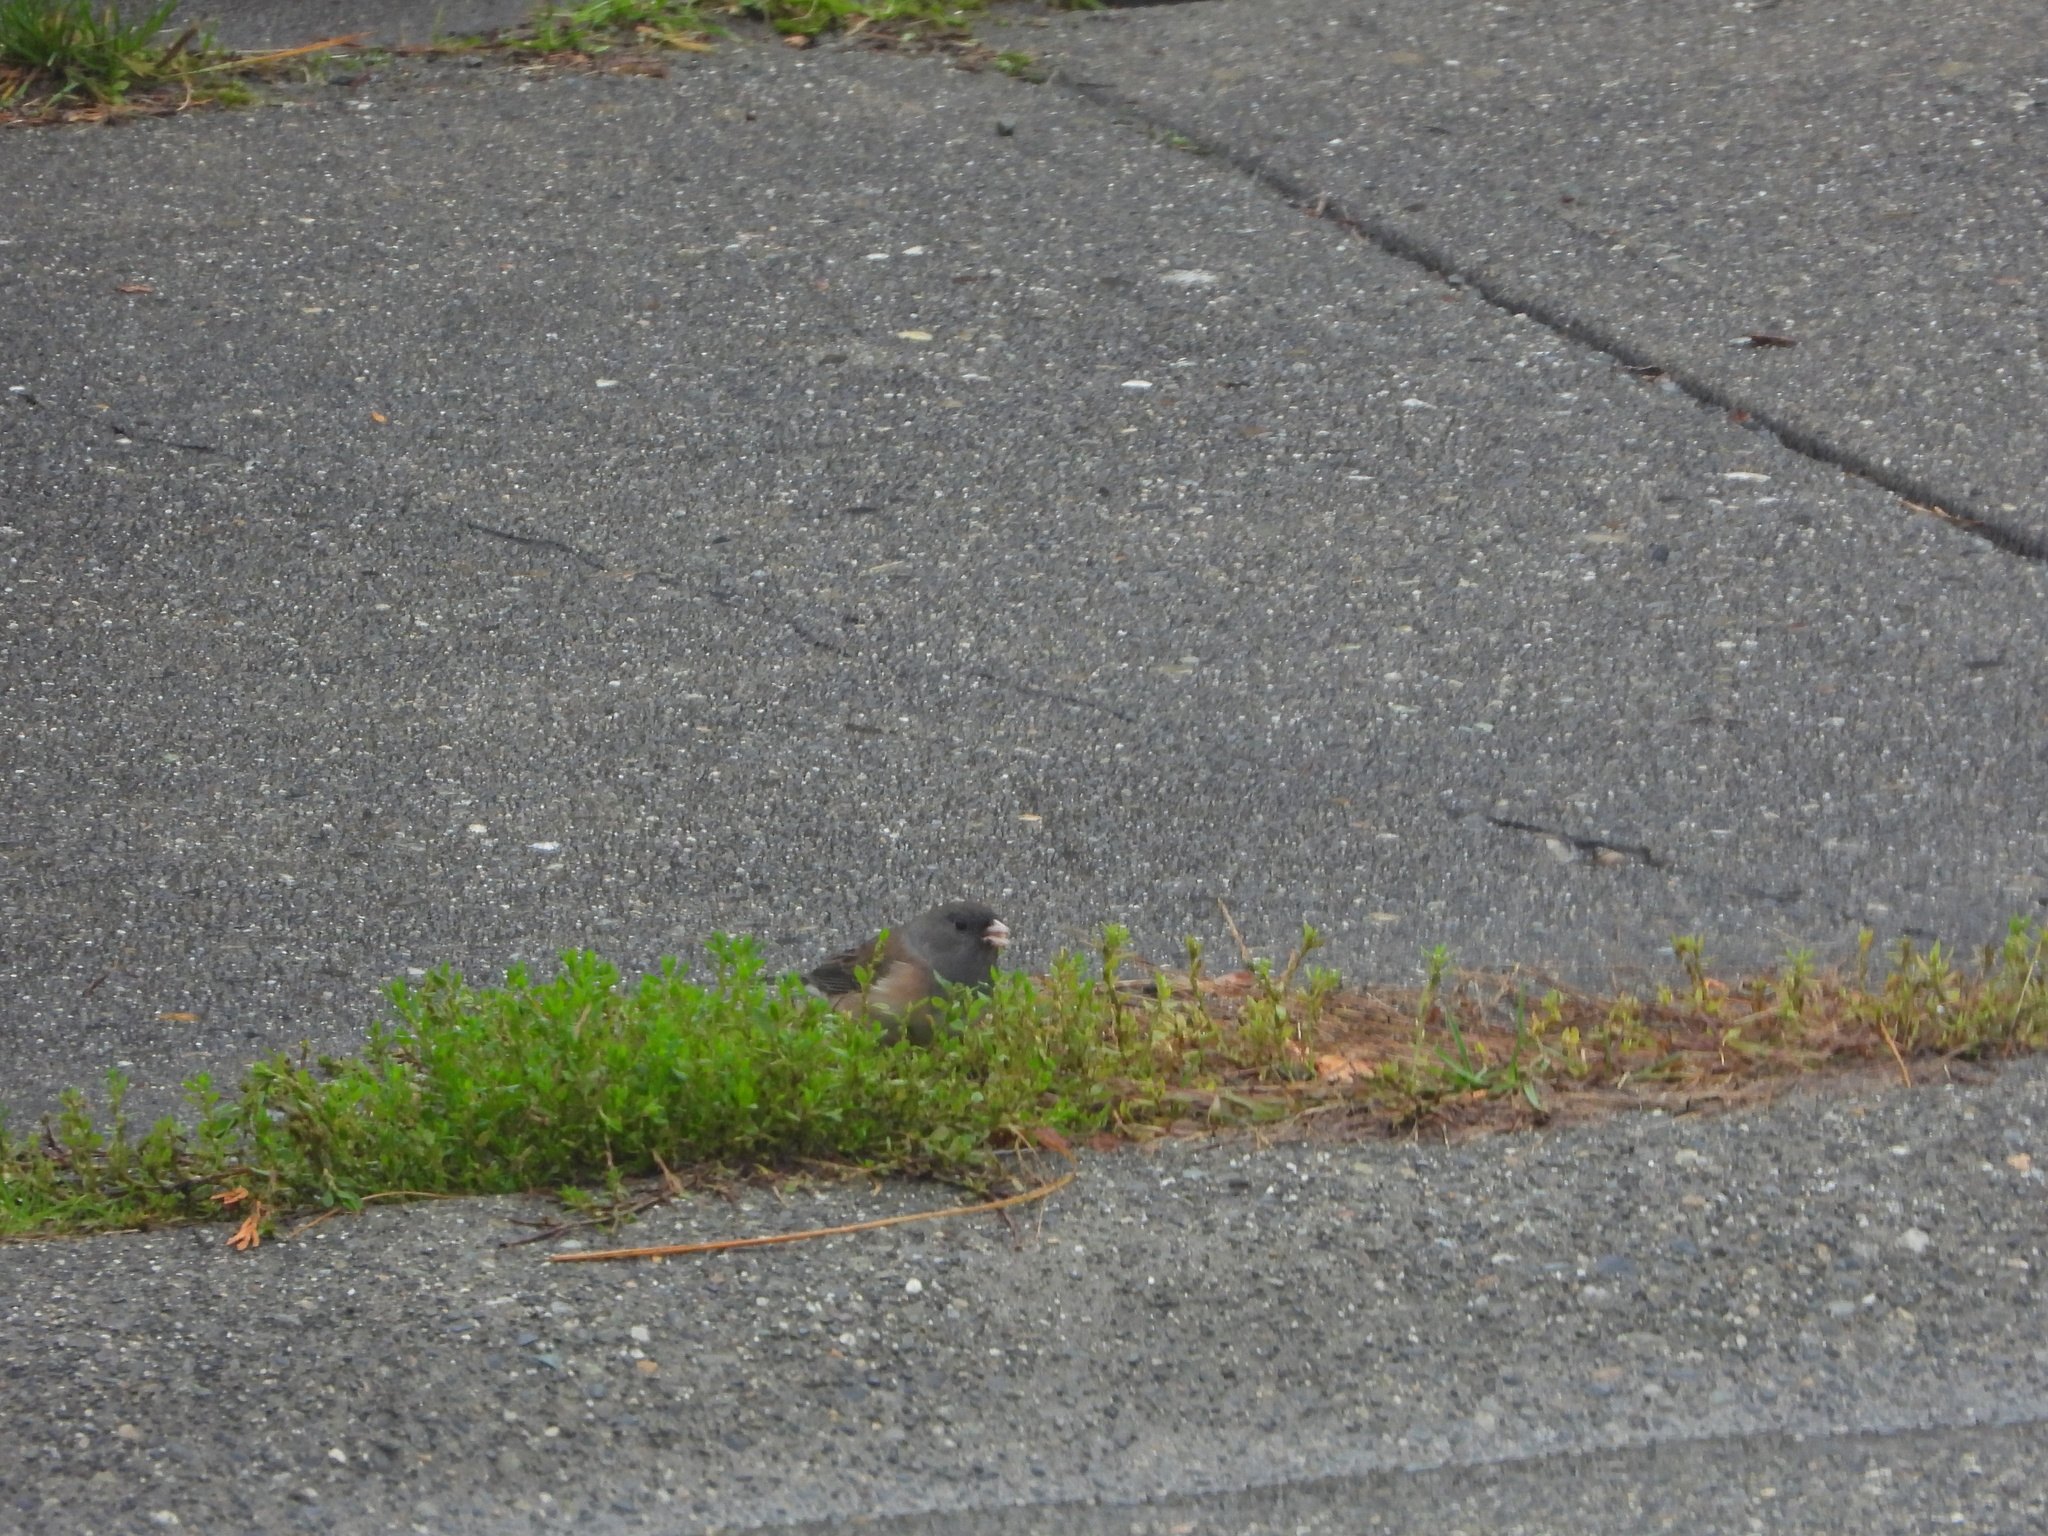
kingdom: Animalia
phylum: Chordata
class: Aves
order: Passeriformes
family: Passerellidae
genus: Junco
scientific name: Junco hyemalis
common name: Dark-eyed junco
